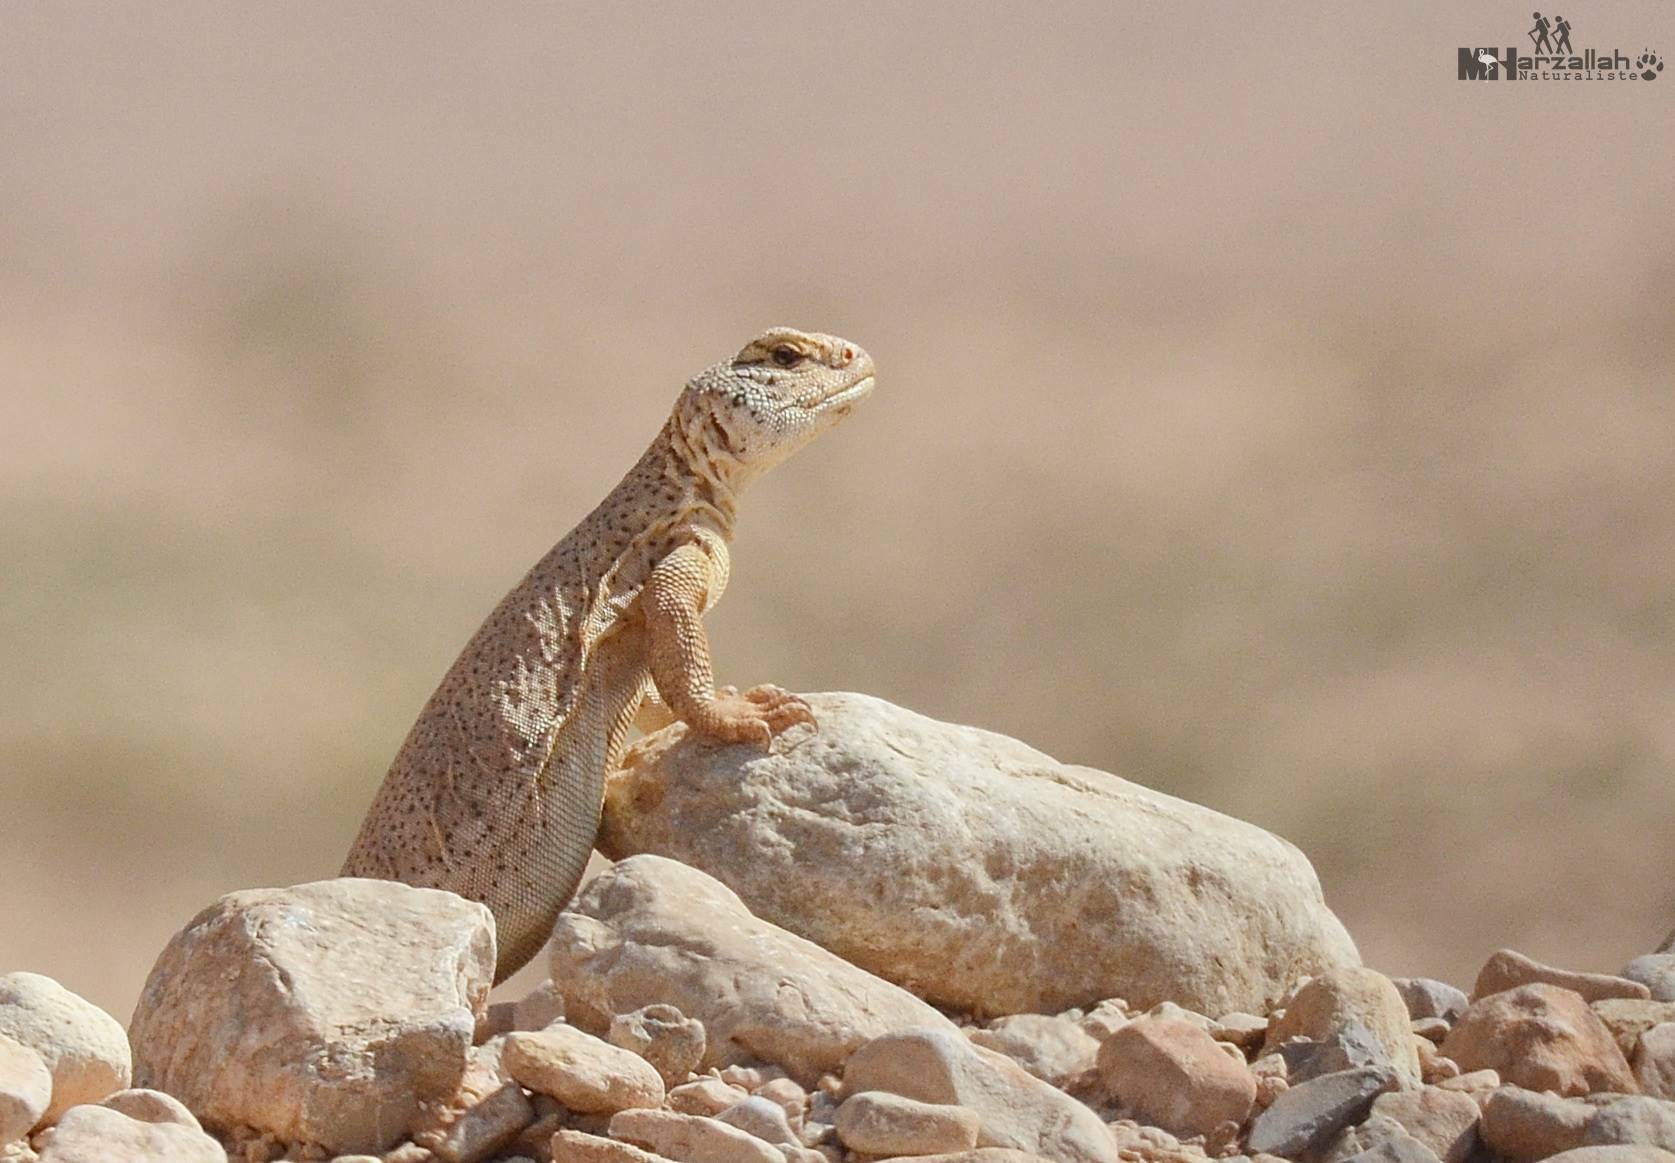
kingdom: Animalia
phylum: Chordata
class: Squamata
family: Agamidae
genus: Uromastyx
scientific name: Uromastyx acanthinura
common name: Dabba mastigure
